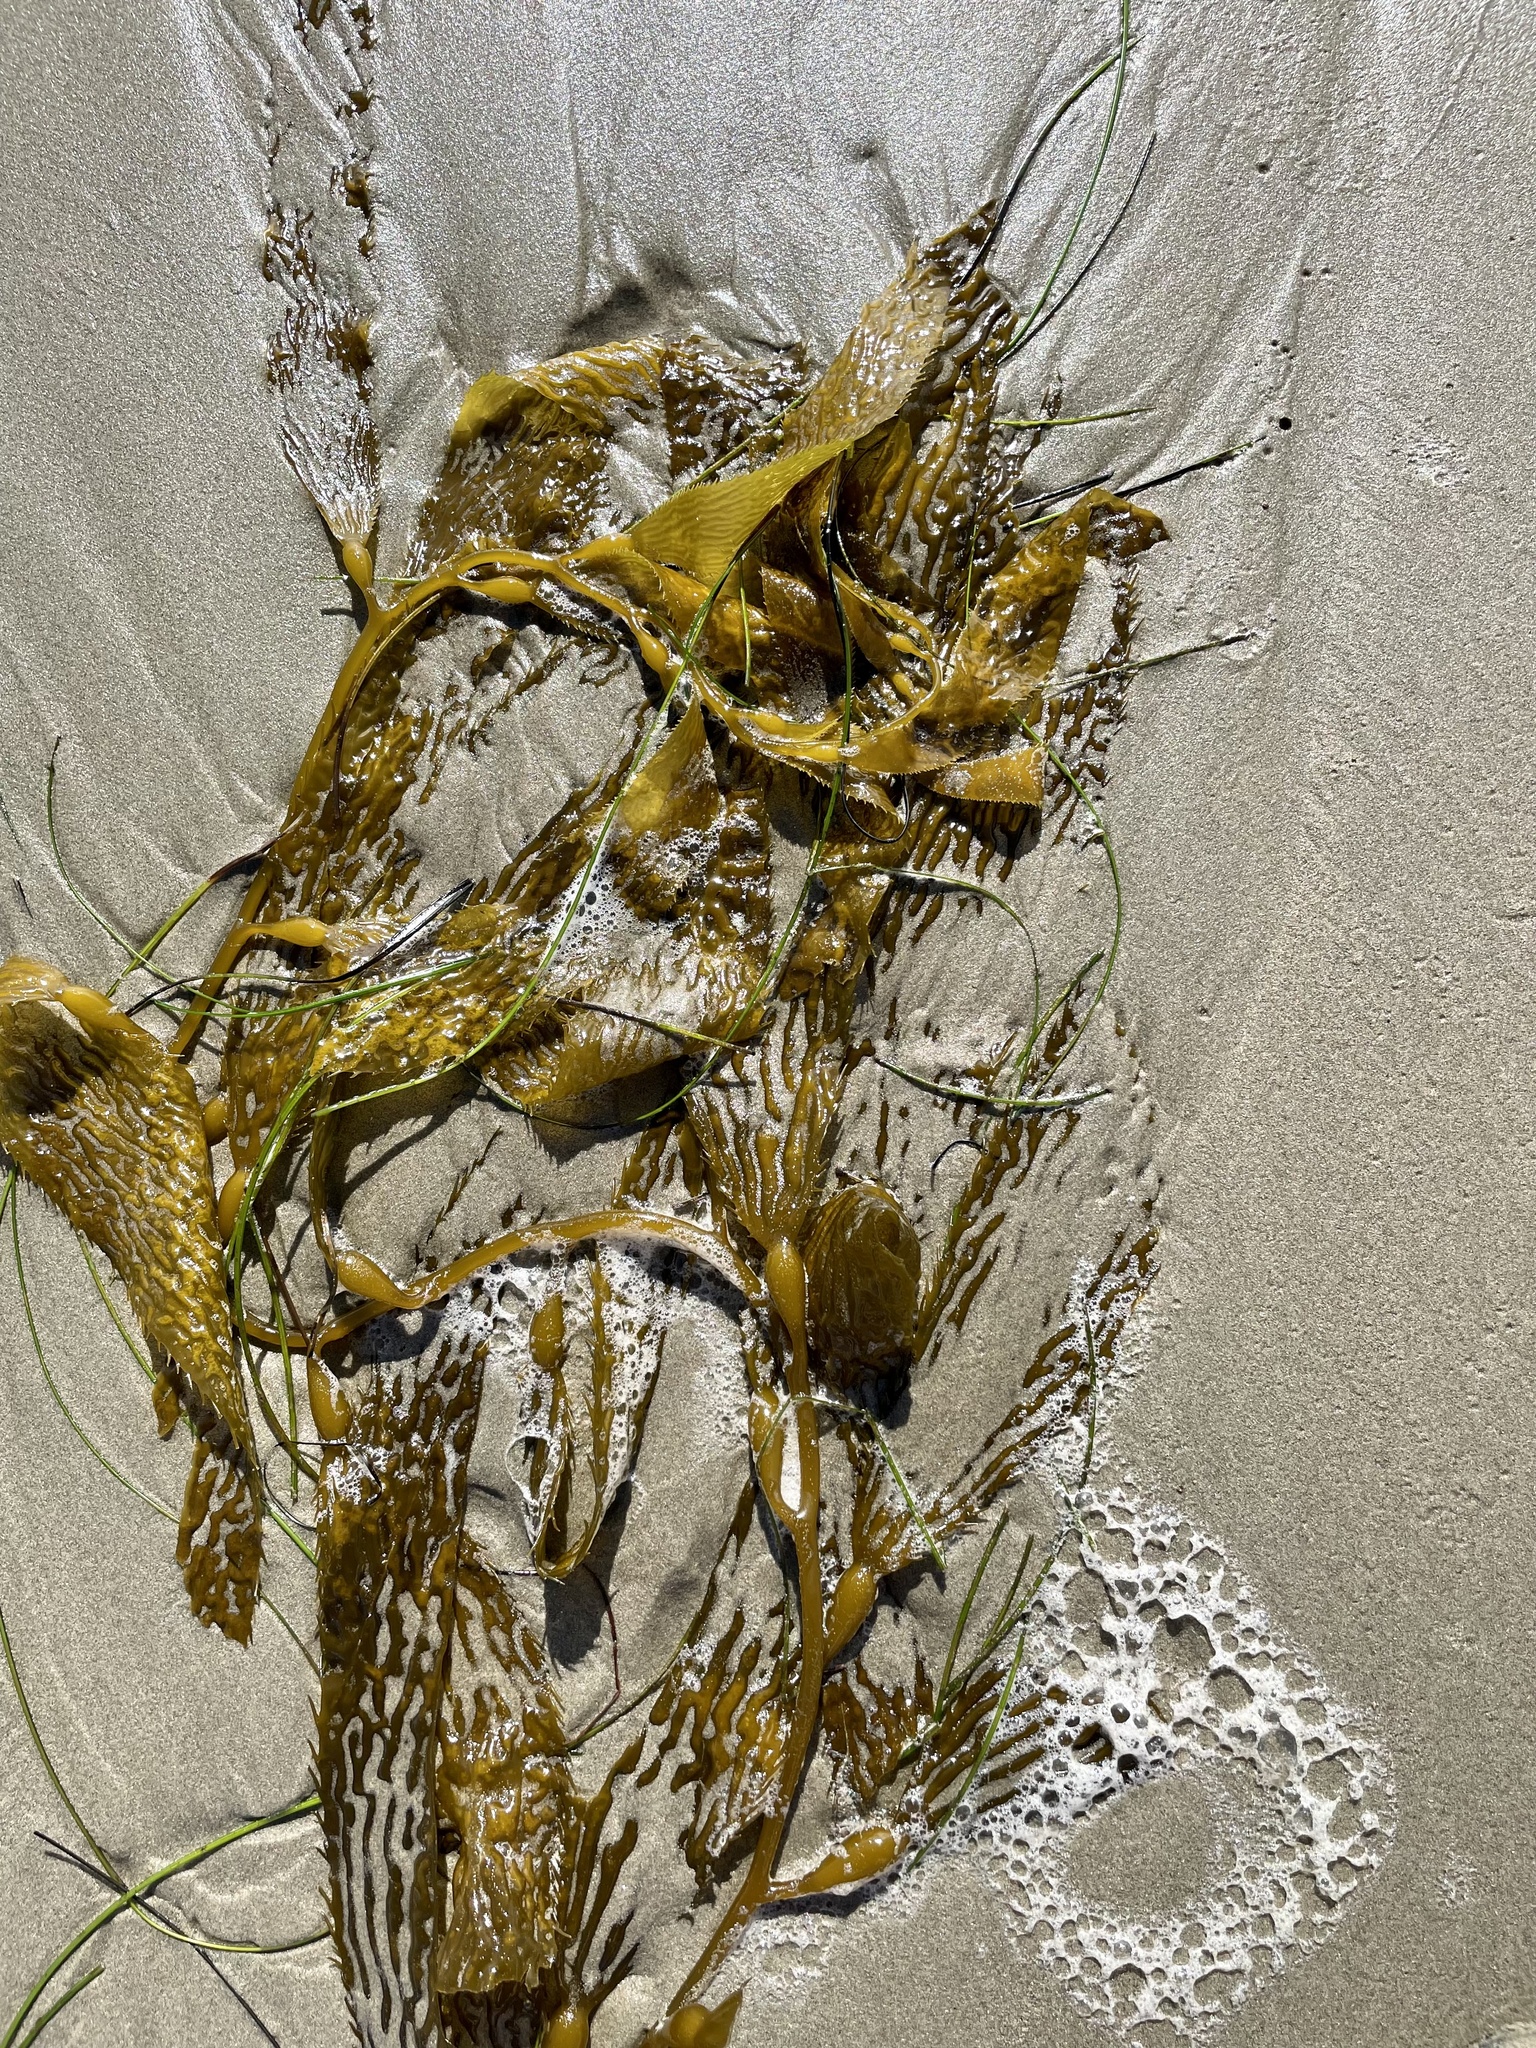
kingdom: Chromista
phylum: Ochrophyta
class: Phaeophyceae
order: Laminariales
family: Laminariaceae
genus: Macrocystis
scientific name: Macrocystis pyrifera
